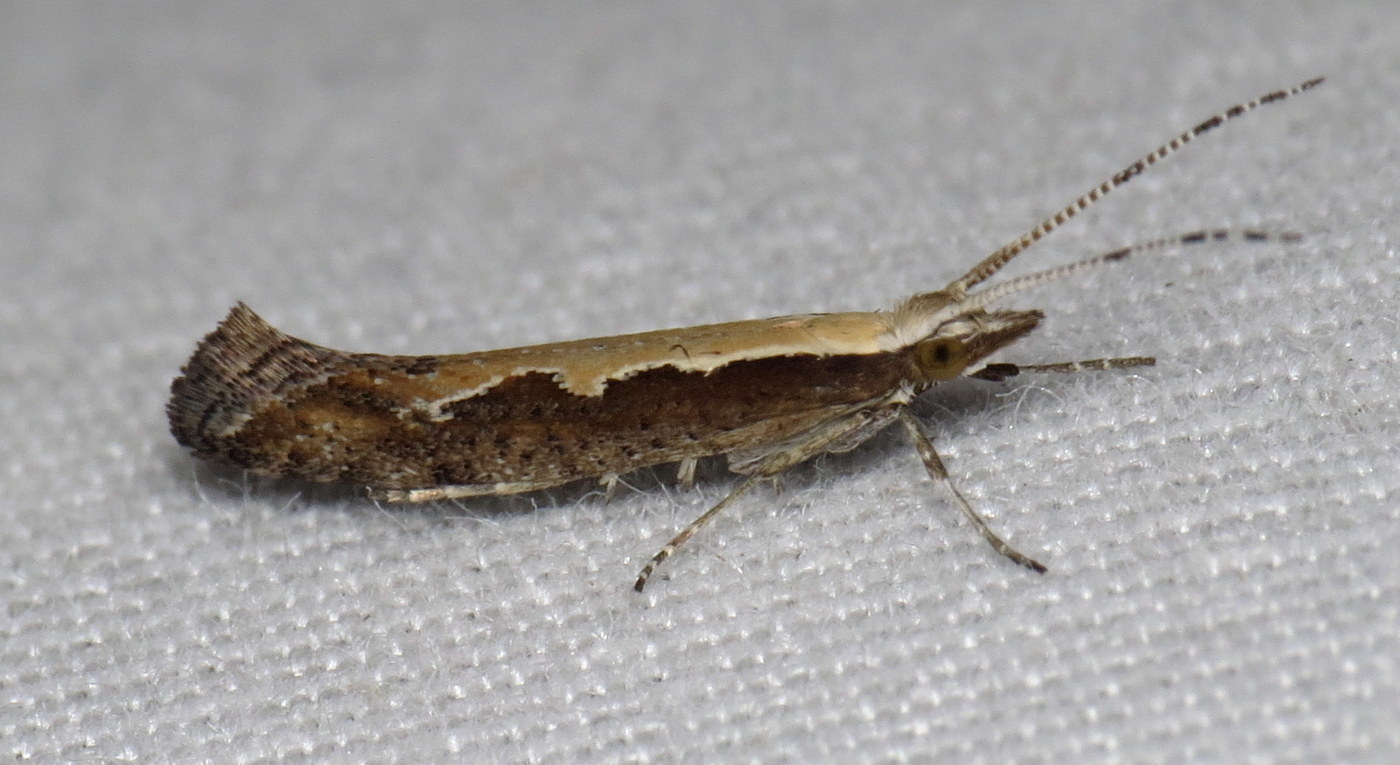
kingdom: Animalia
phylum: Arthropoda
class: Insecta
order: Lepidoptera
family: Plutellidae
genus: Plutella
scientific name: Plutella xylostella
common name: Diamond-back moth
